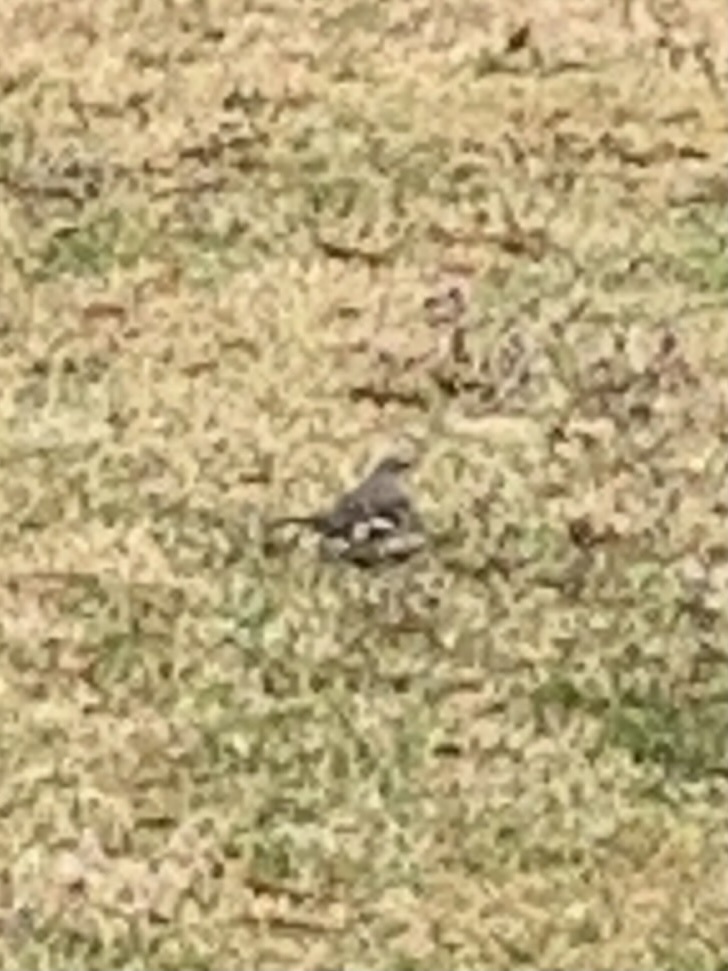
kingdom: Animalia
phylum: Chordata
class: Aves
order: Passeriformes
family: Mimidae
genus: Mimus
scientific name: Mimus polyglottos
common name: Northern mockingbird
